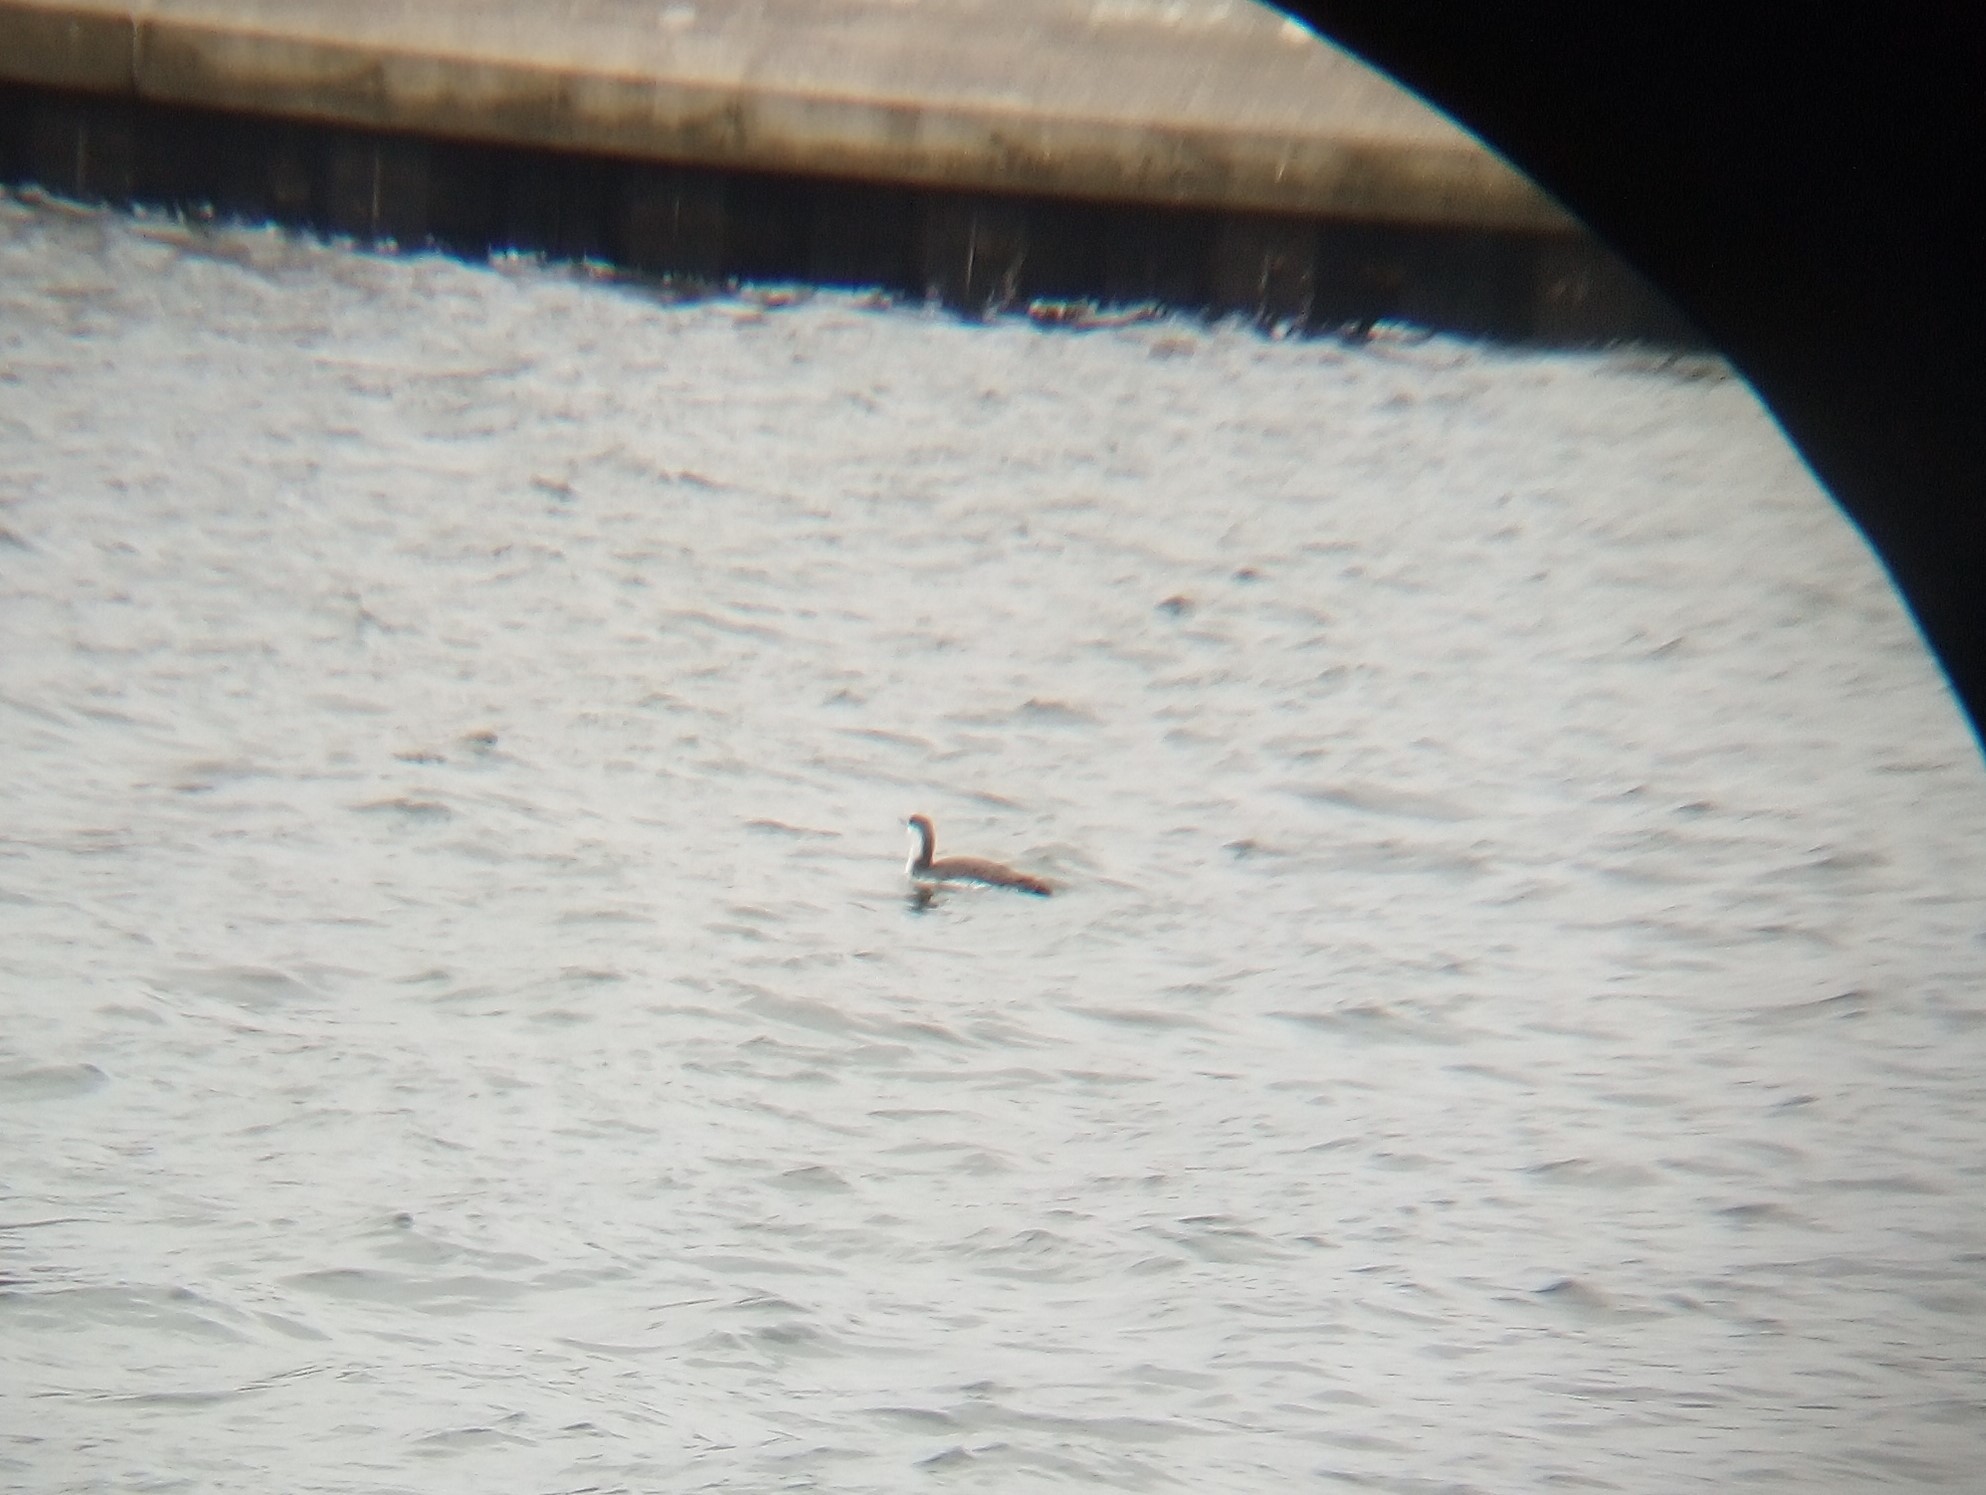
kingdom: Animalia
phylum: Chordata
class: Aves
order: Gaviiformes
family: Gaviidae
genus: Gavia
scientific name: Gavia stellata
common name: Red-throated loon
